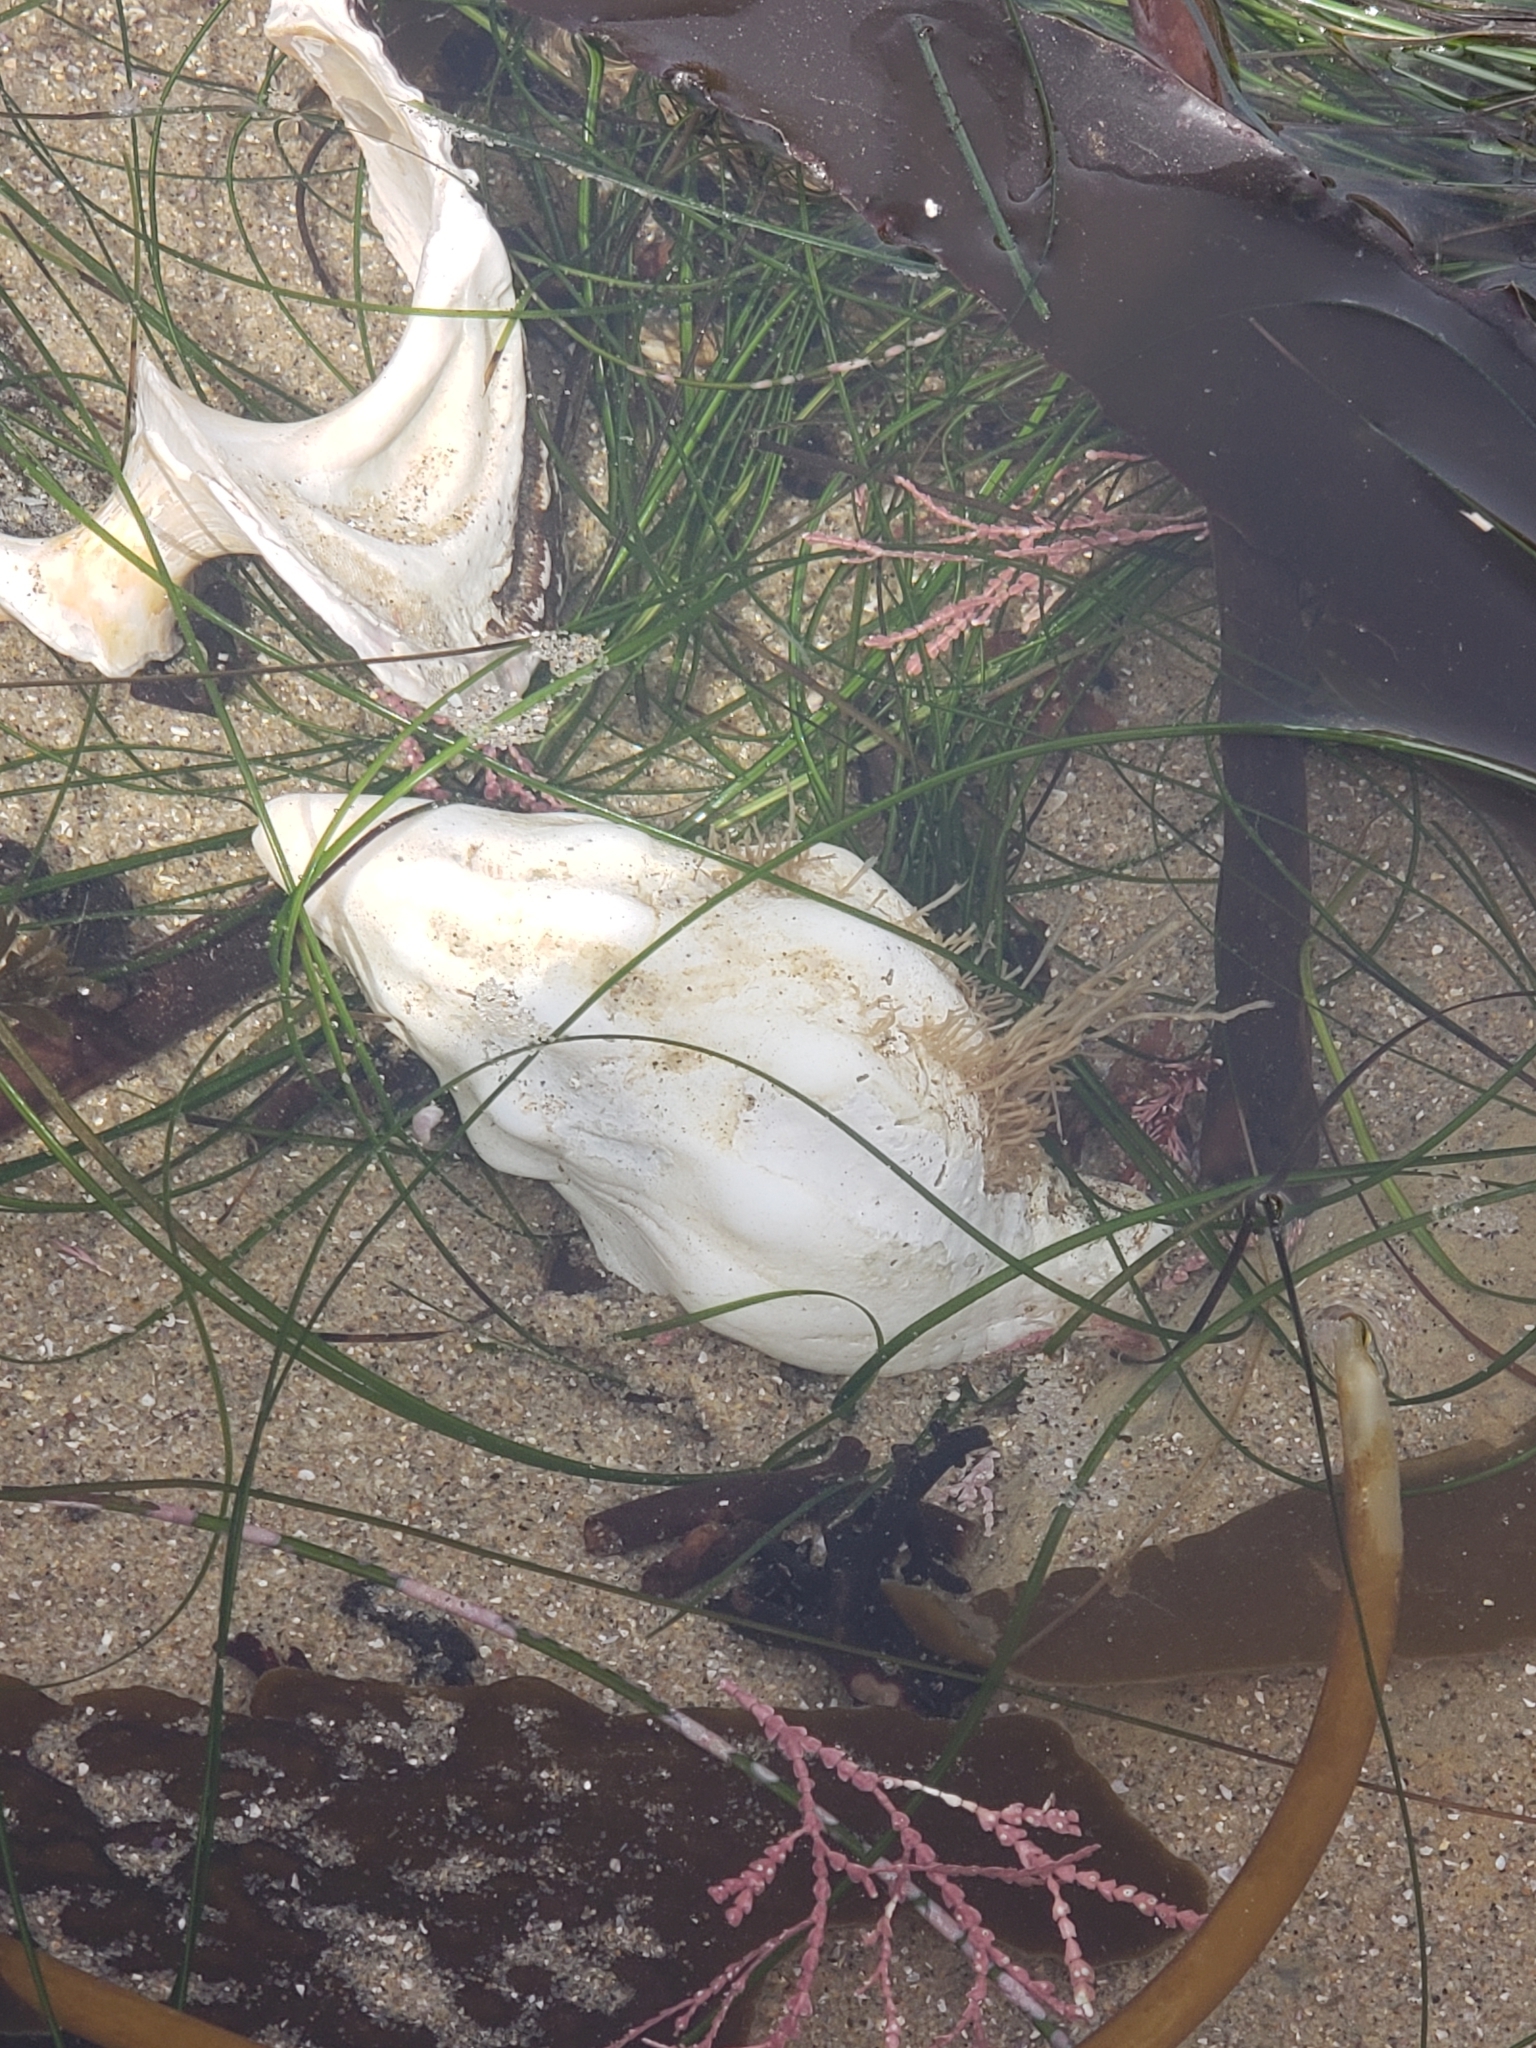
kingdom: Animalia
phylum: Mollusca
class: Gastropoda
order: Neogastropoda
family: Austrosiphonidae
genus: Kelletia
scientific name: Kelletia kelletii
